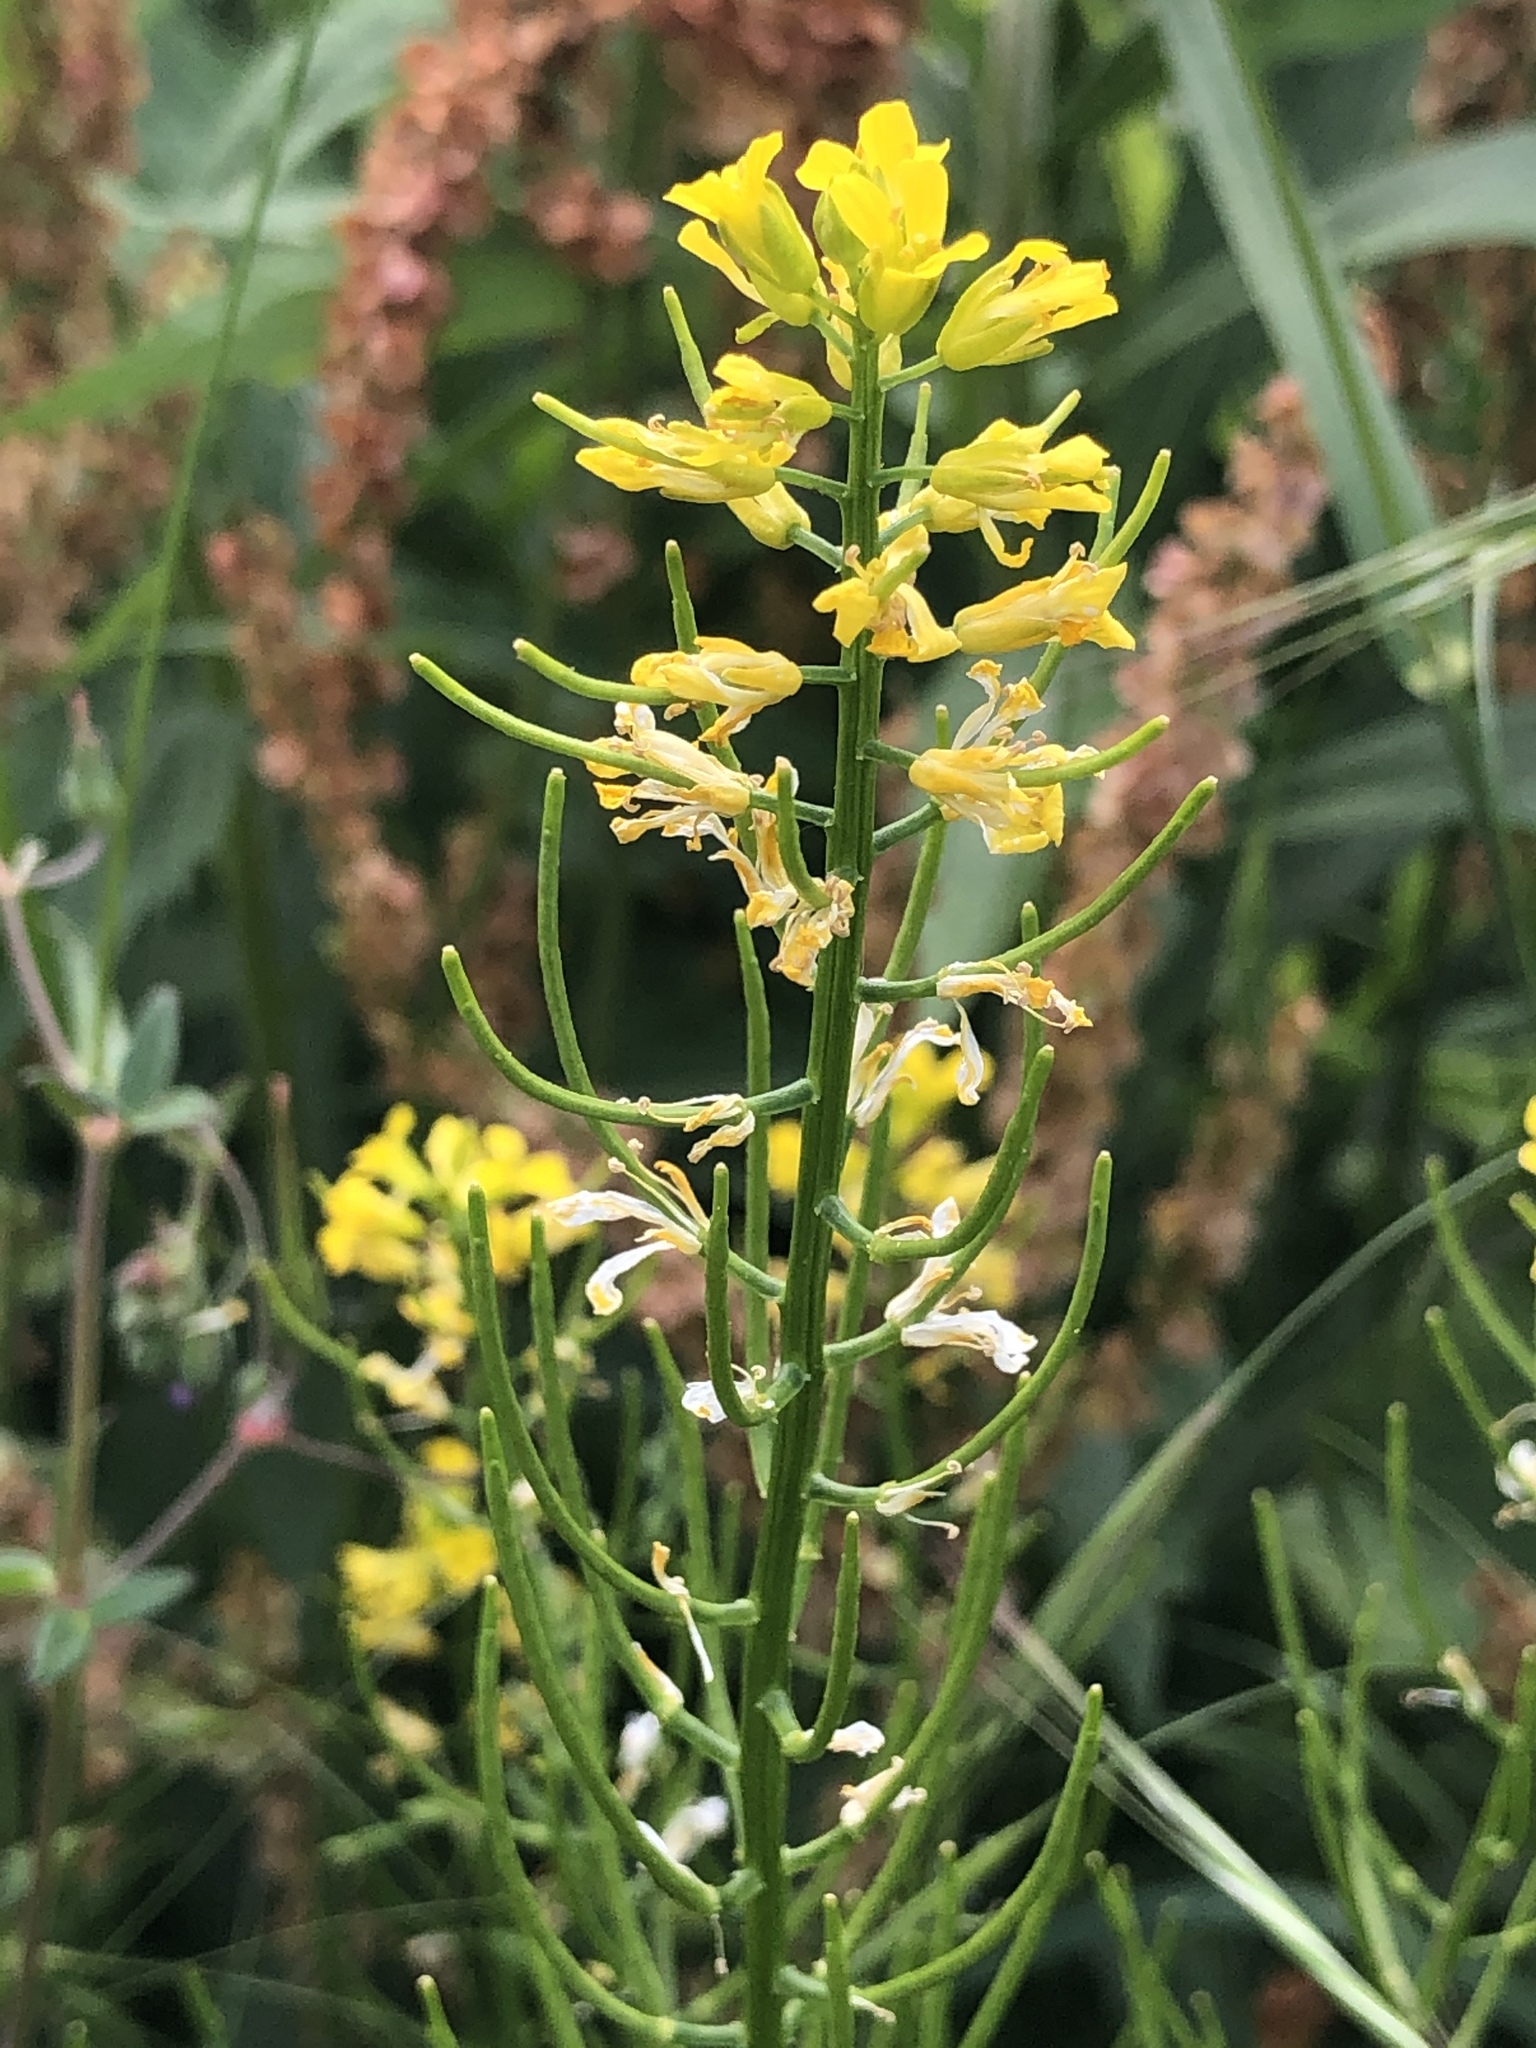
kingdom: Plantae
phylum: Tracheophyta
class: Magnoliopsida
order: Brassicales
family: Brassicaceae
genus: Barbarea
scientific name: Barbarea vulgaris
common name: Cressy-greens
